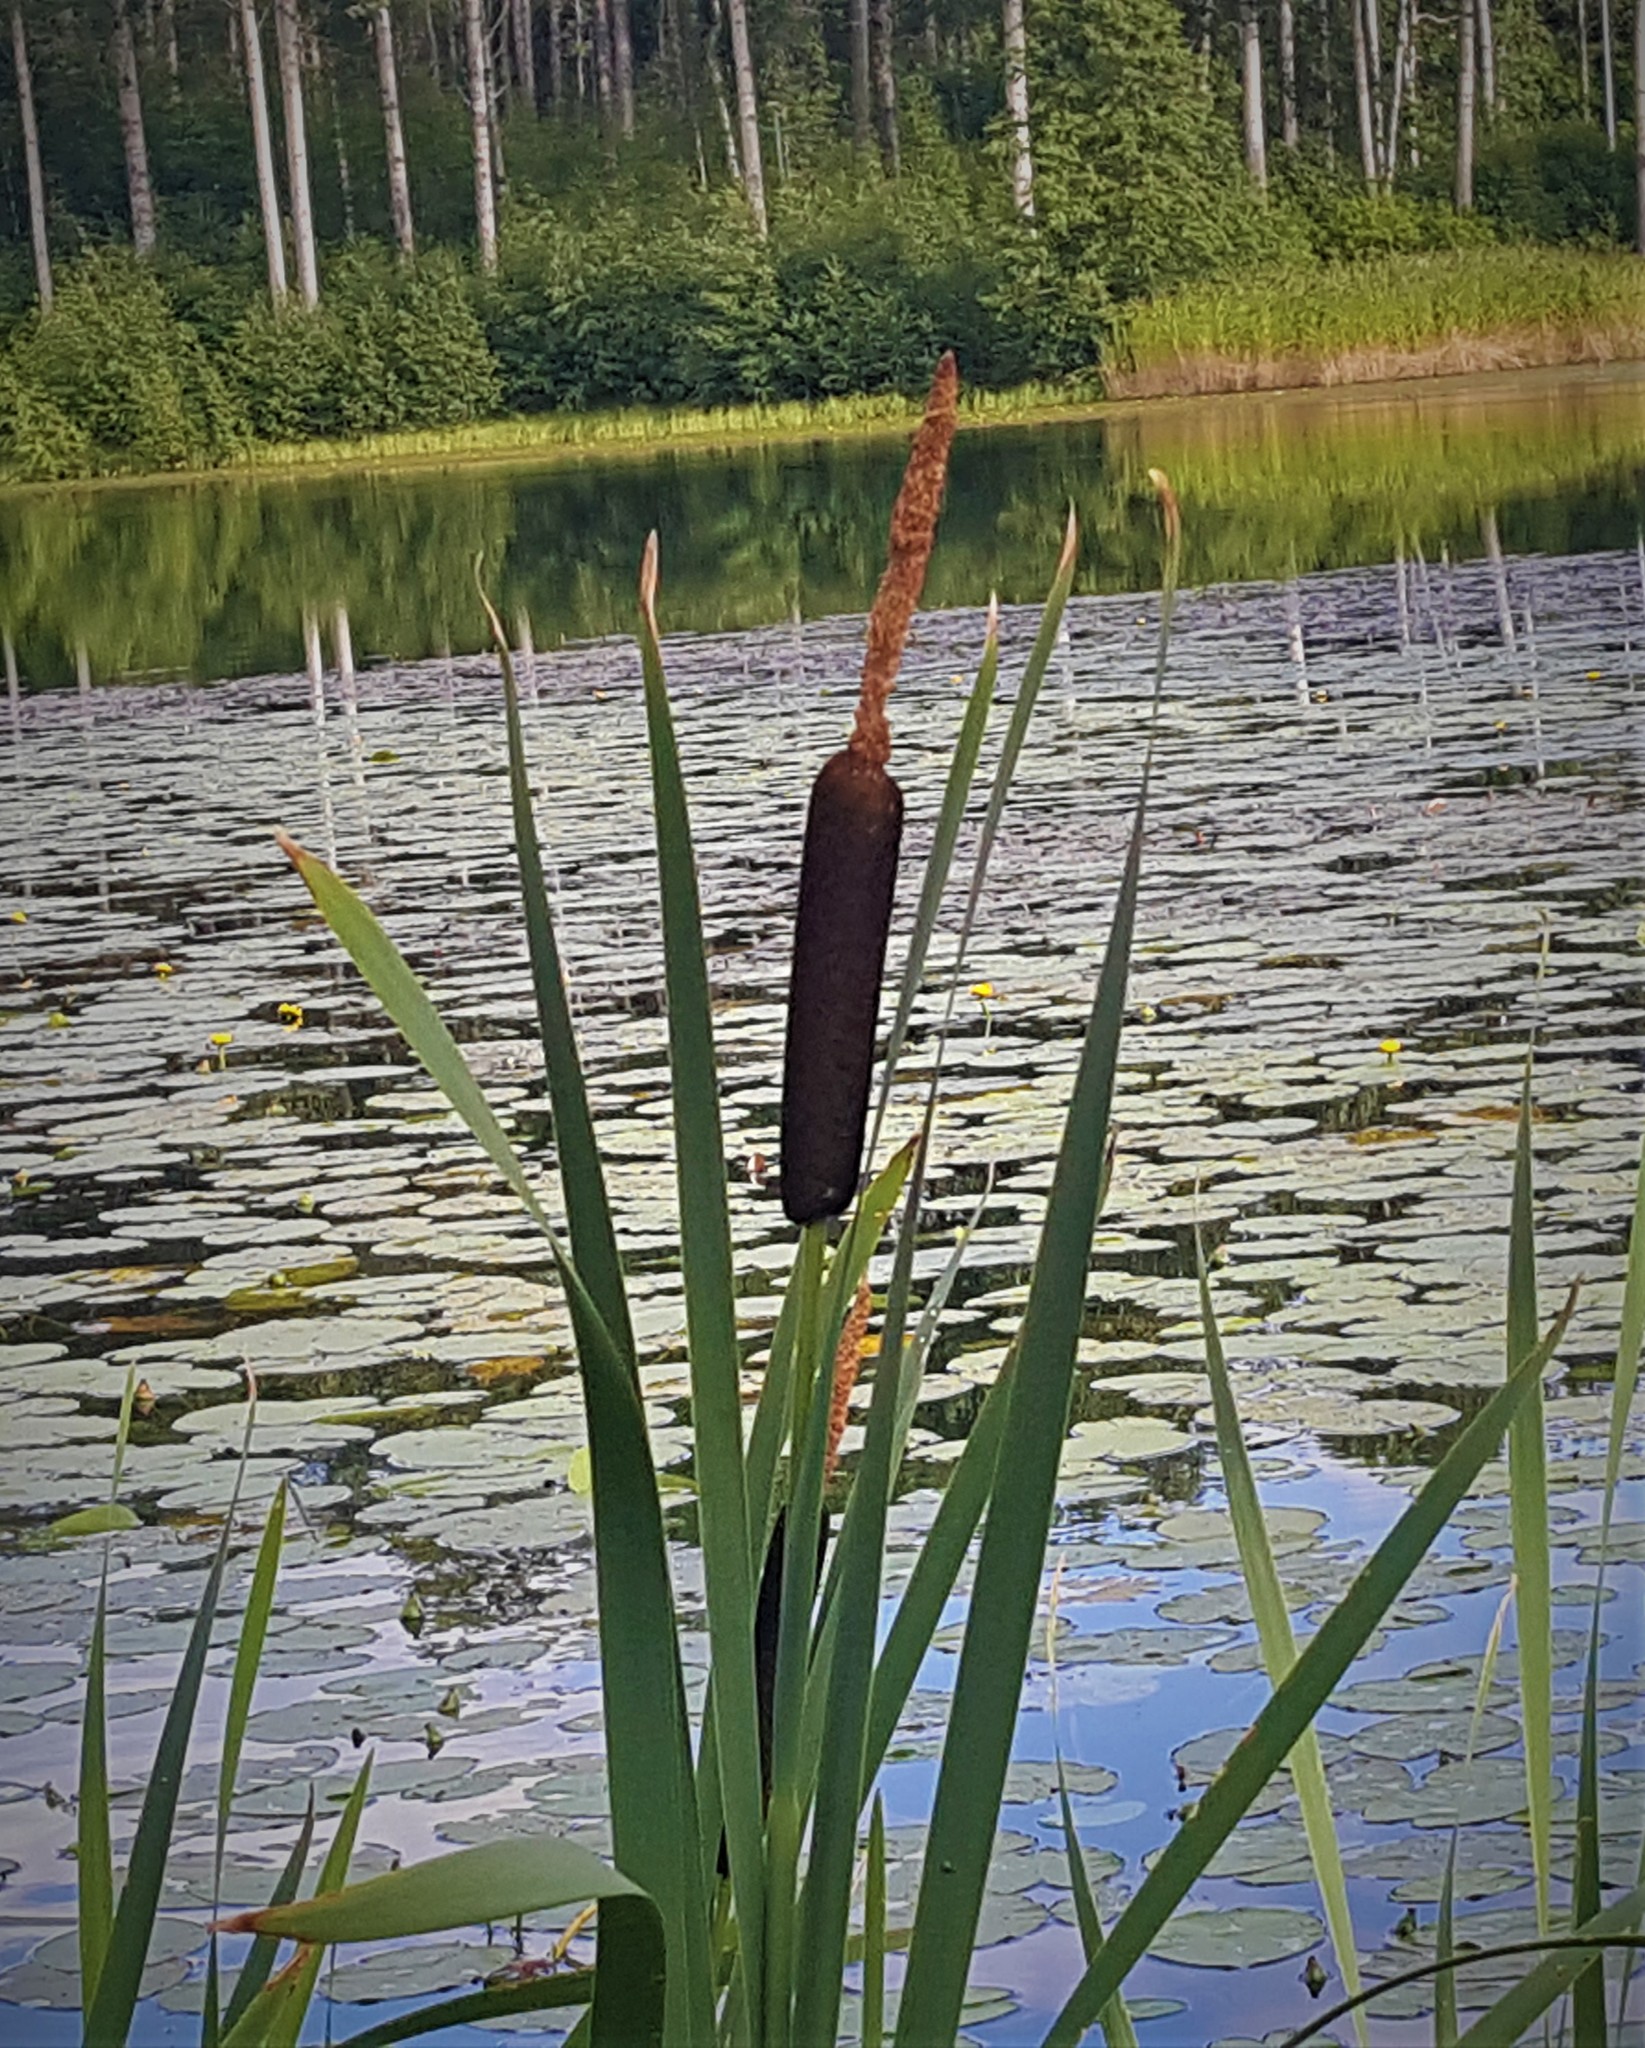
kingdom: Plantae
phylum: Tracheophyta
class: Liliopsida
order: Poales
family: Typhaceae
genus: Typha
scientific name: Typha latifolia
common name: Broadleaf cattail
